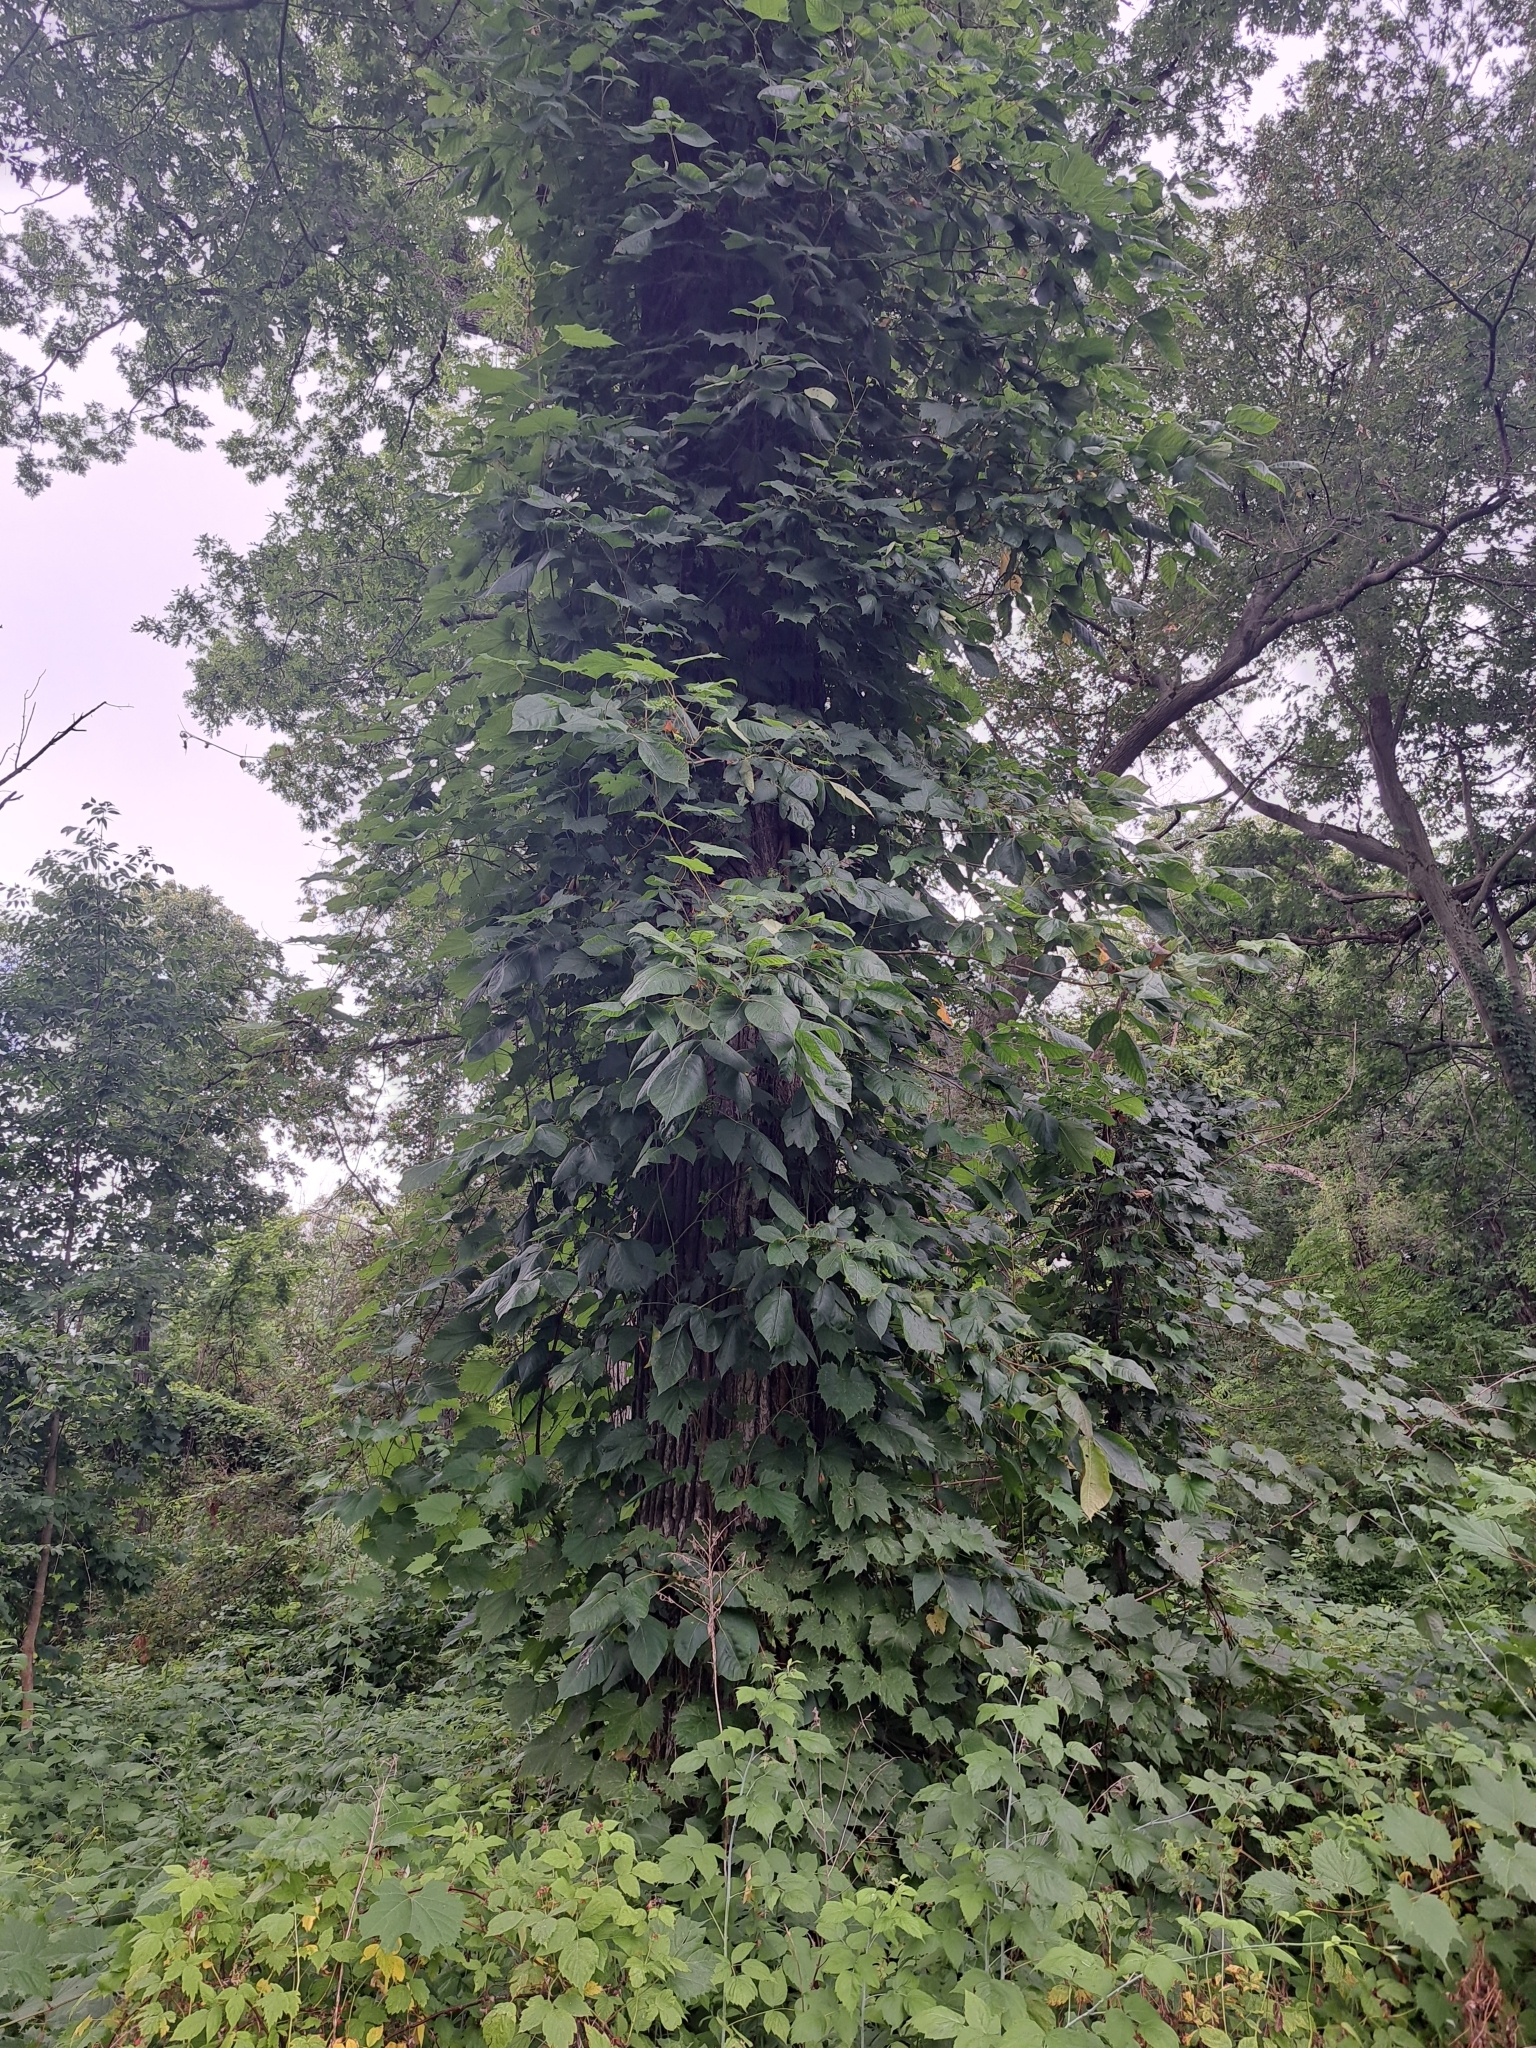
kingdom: Plantae
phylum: Tracheophyta
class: Magnoliopsida
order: Sapindales
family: Anacardiaceae
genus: Toxicodendron
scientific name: Toxicodendron radicans
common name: Poison ivy
